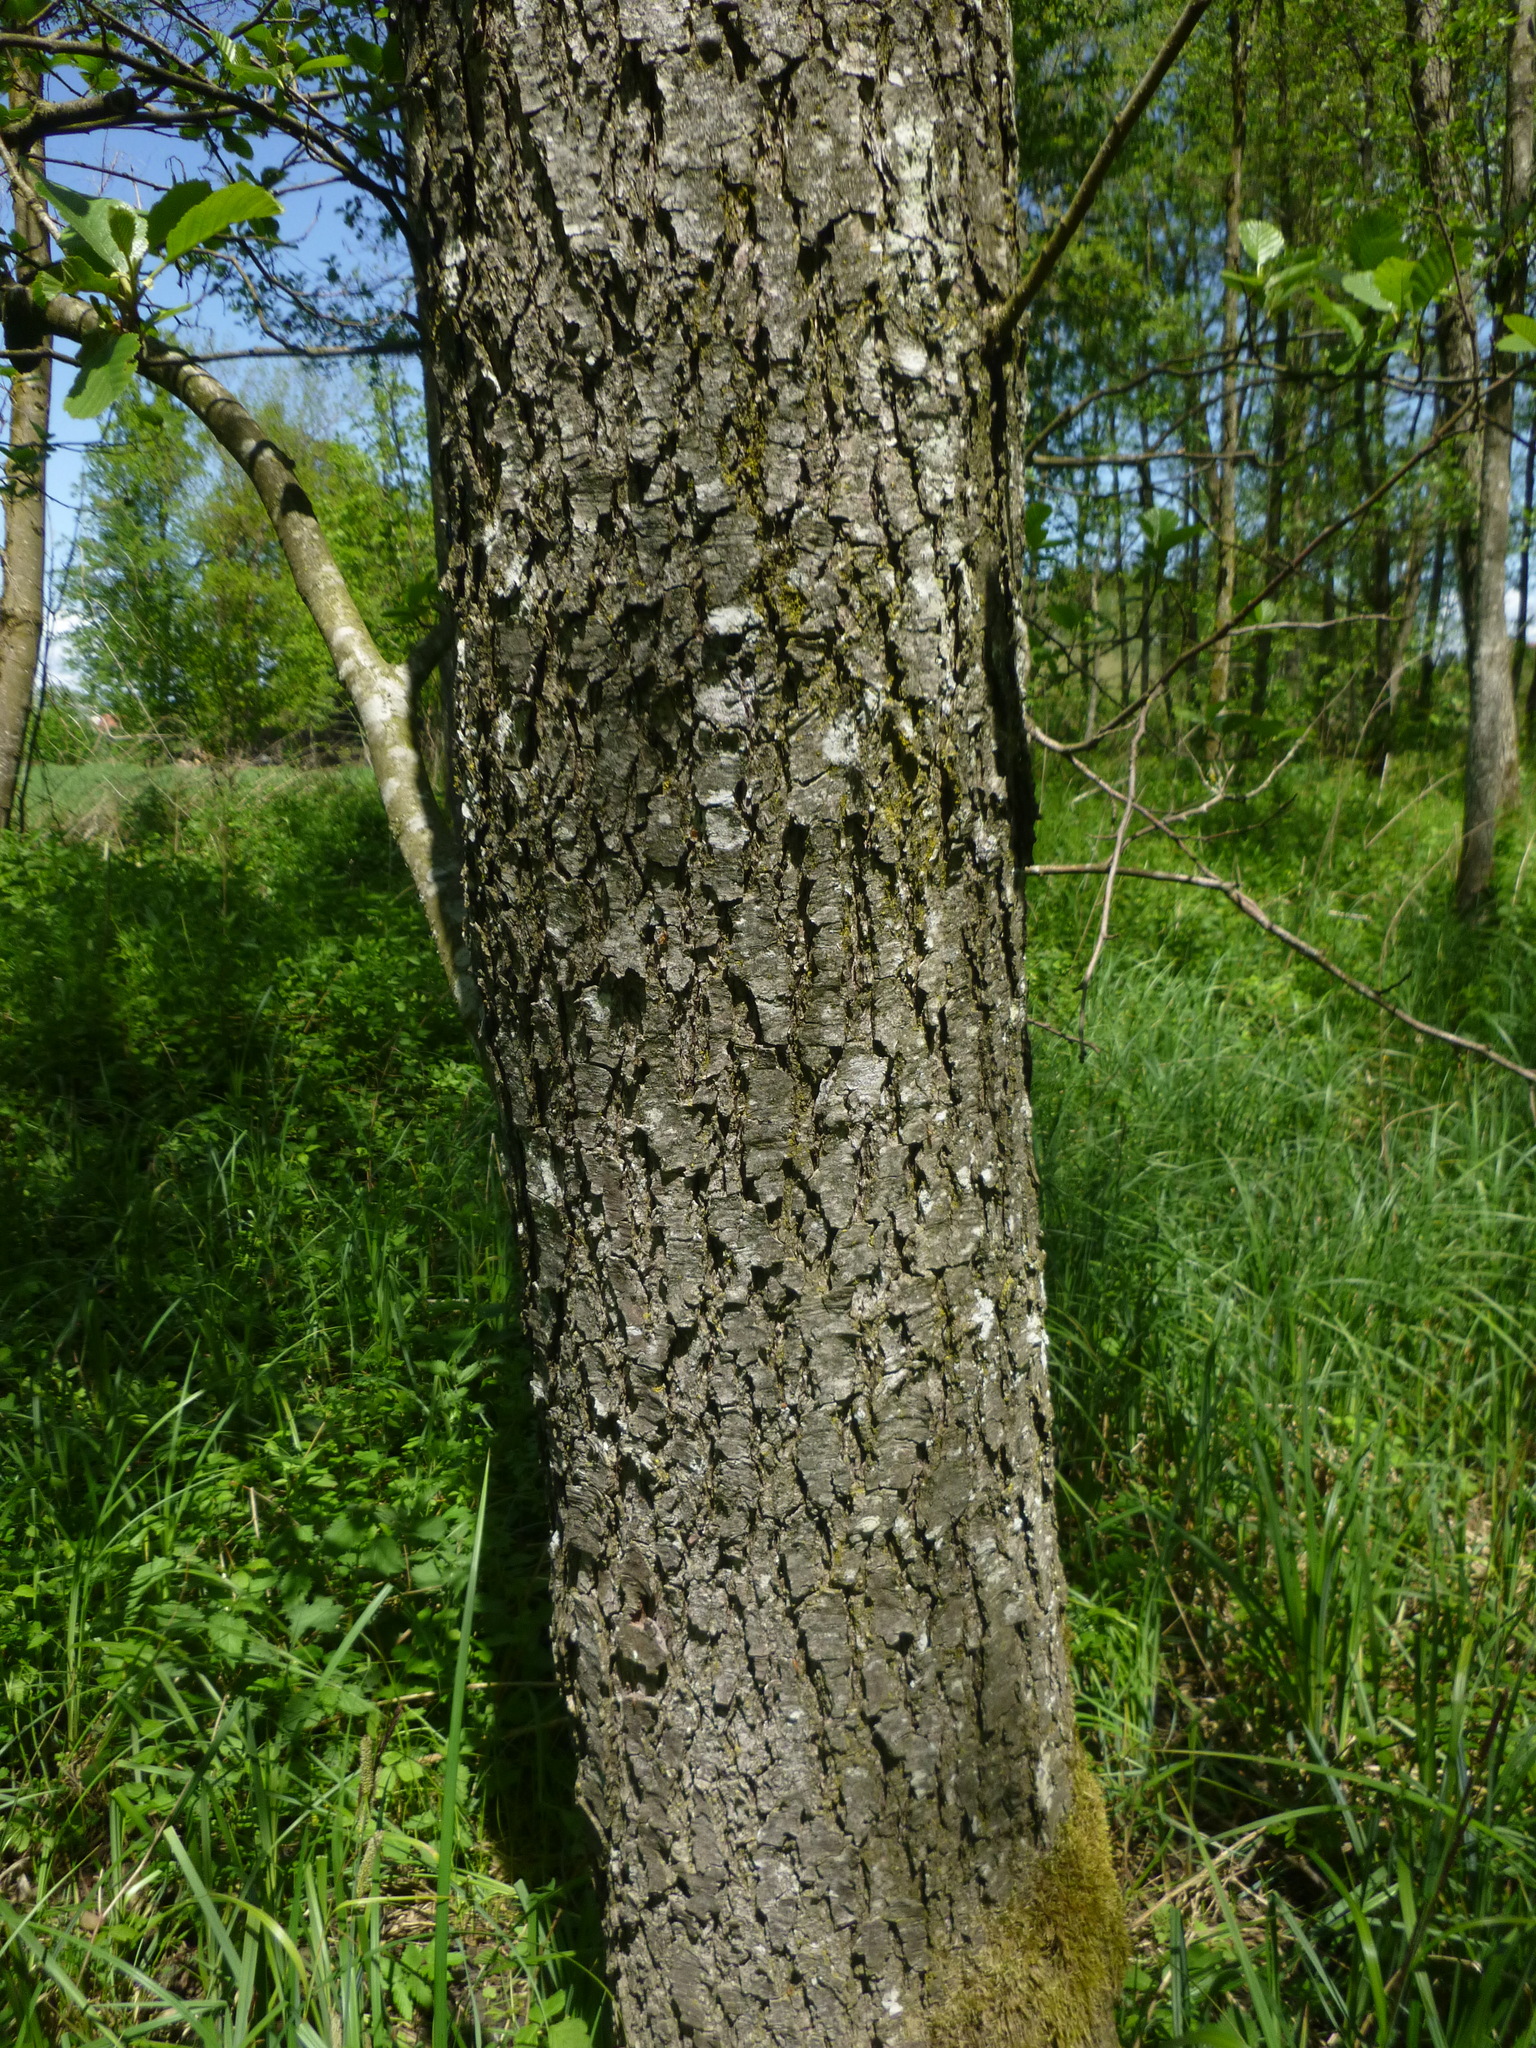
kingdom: Plantae
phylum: Tracheophyta
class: Magnoliopsida
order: Fagales
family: Betulaceae
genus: Alnus
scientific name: Alnus glutinosa
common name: Black alder
